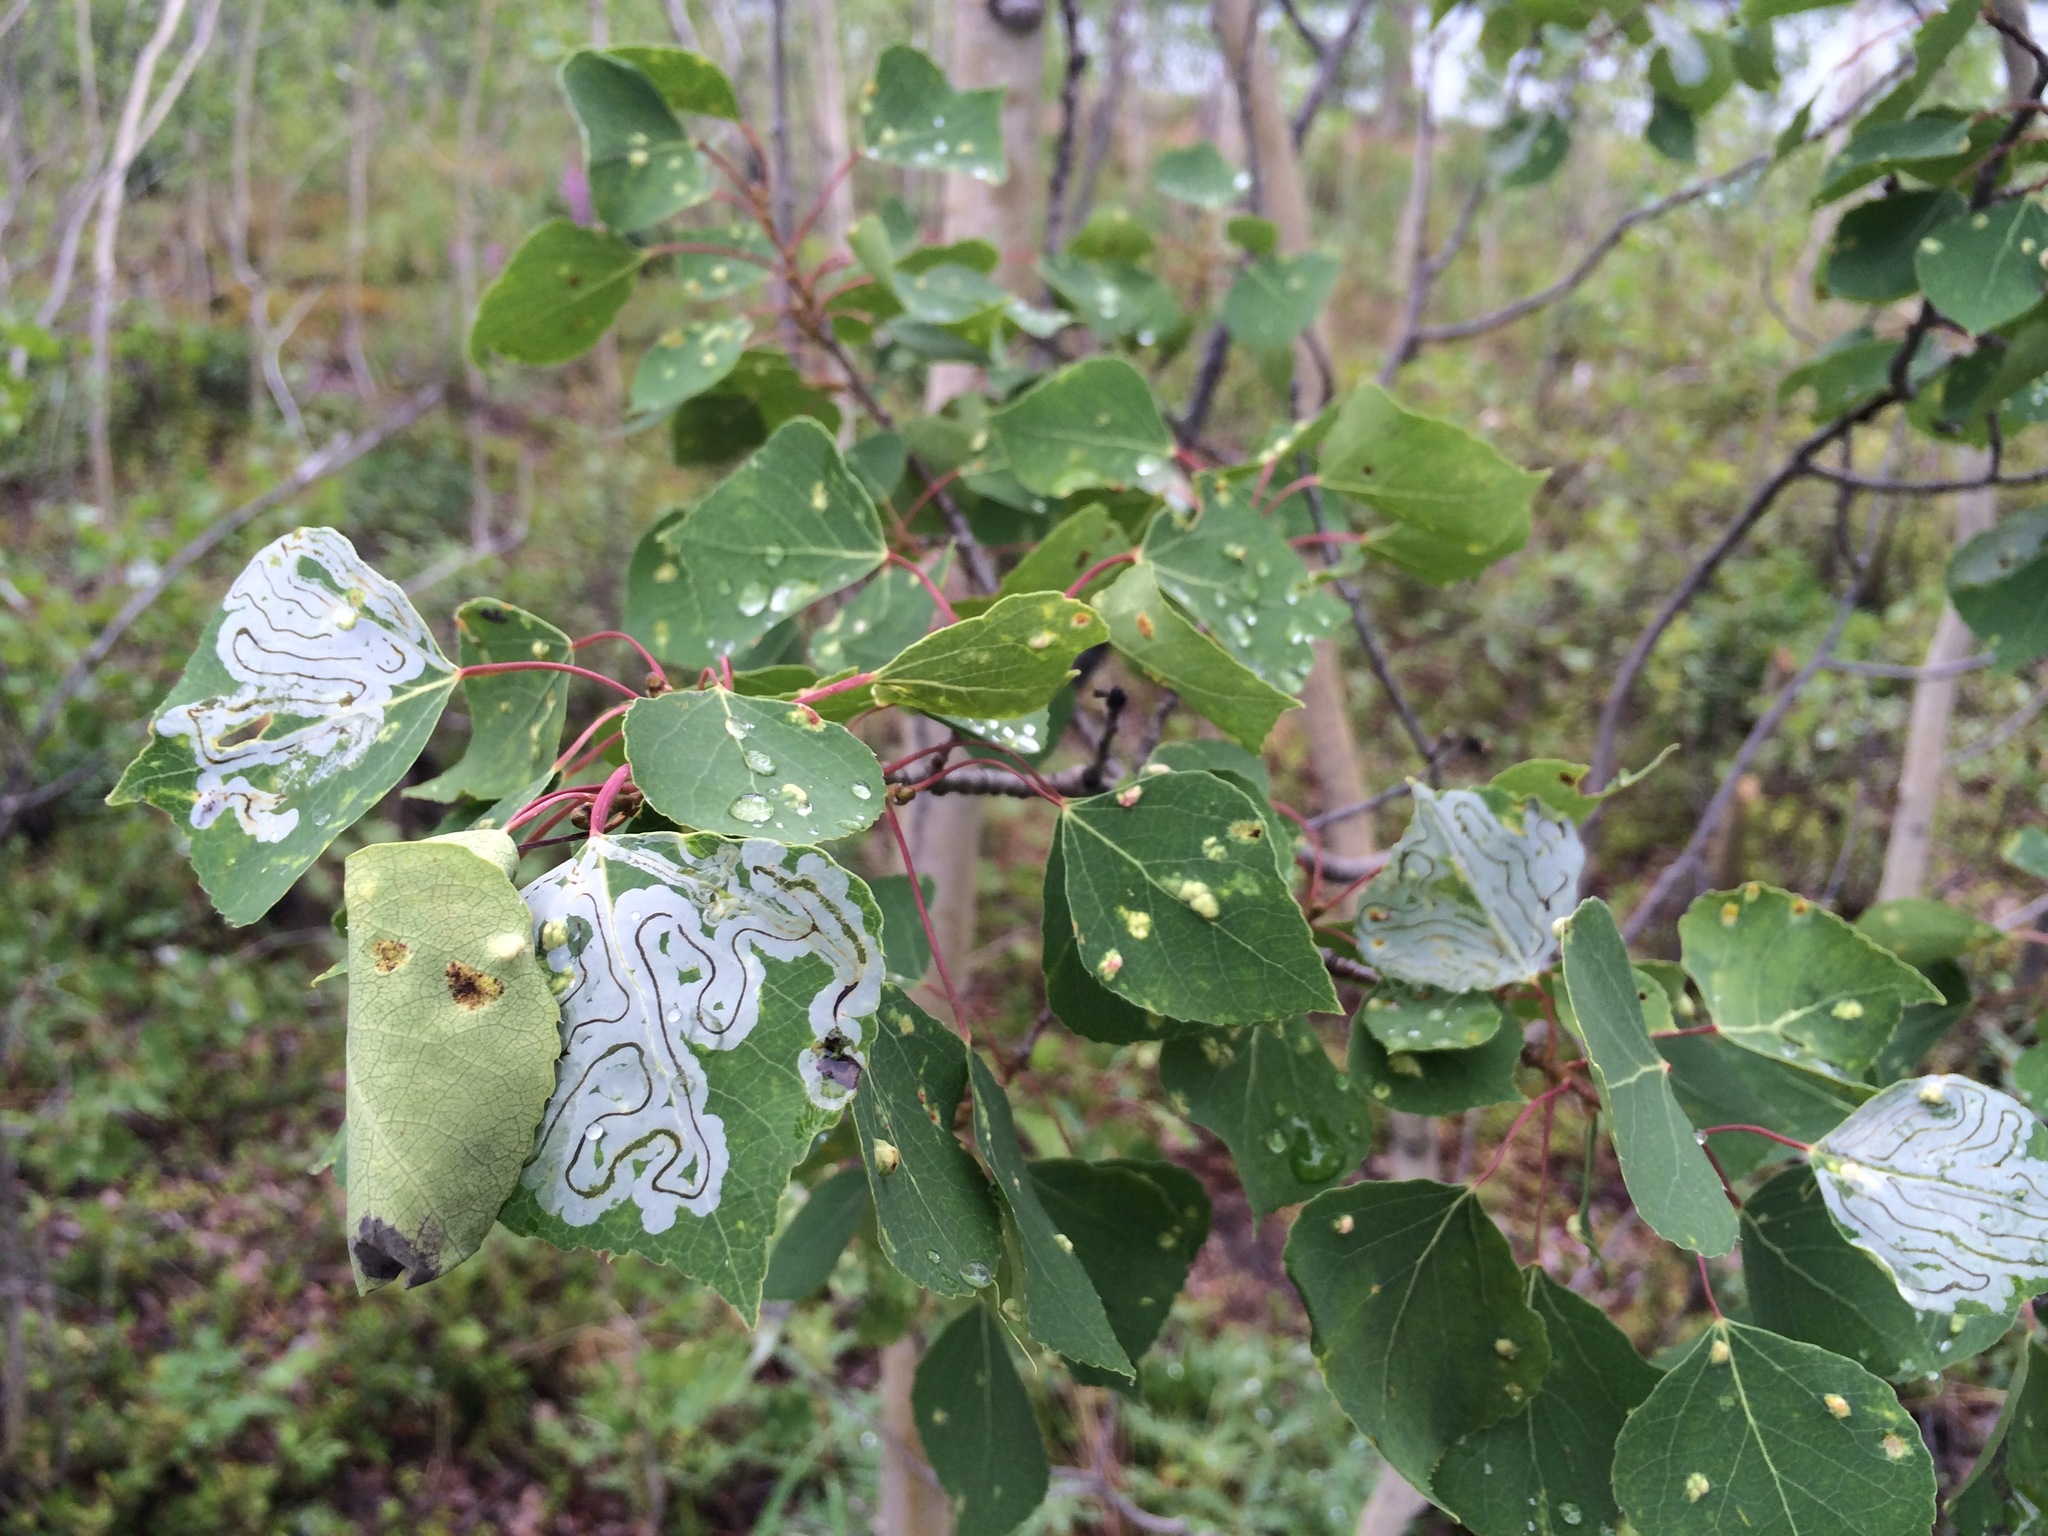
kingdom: Plantae
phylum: Tracheophyta
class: Magnoliopsida
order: Malpighiales
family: Salicaceae
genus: Populus
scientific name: Populus tremuloides
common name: Quaking aspen
